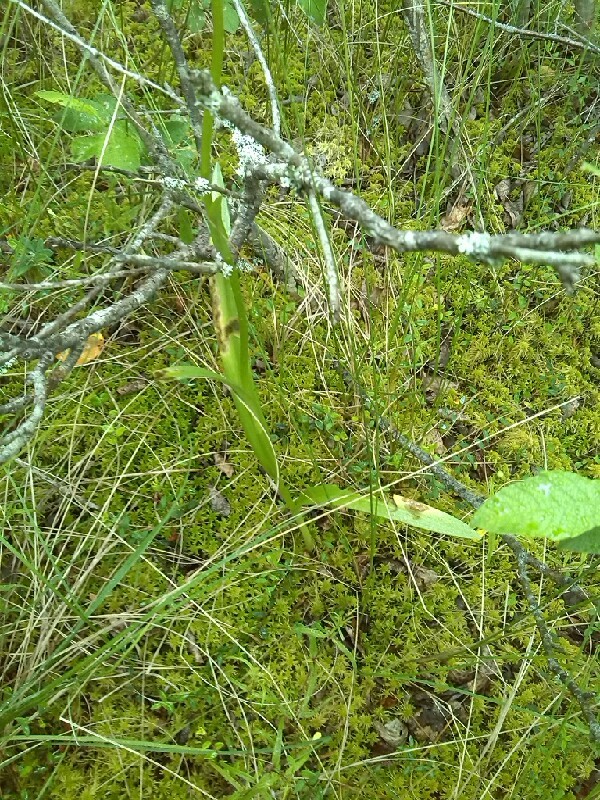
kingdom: Plantae
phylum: Tracheophyta
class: Liliopsida
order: Asparagales
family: Orchidaceae
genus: Dactylorhiza
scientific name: Dactylorhiza maculata
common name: Heath spotted-orchid
